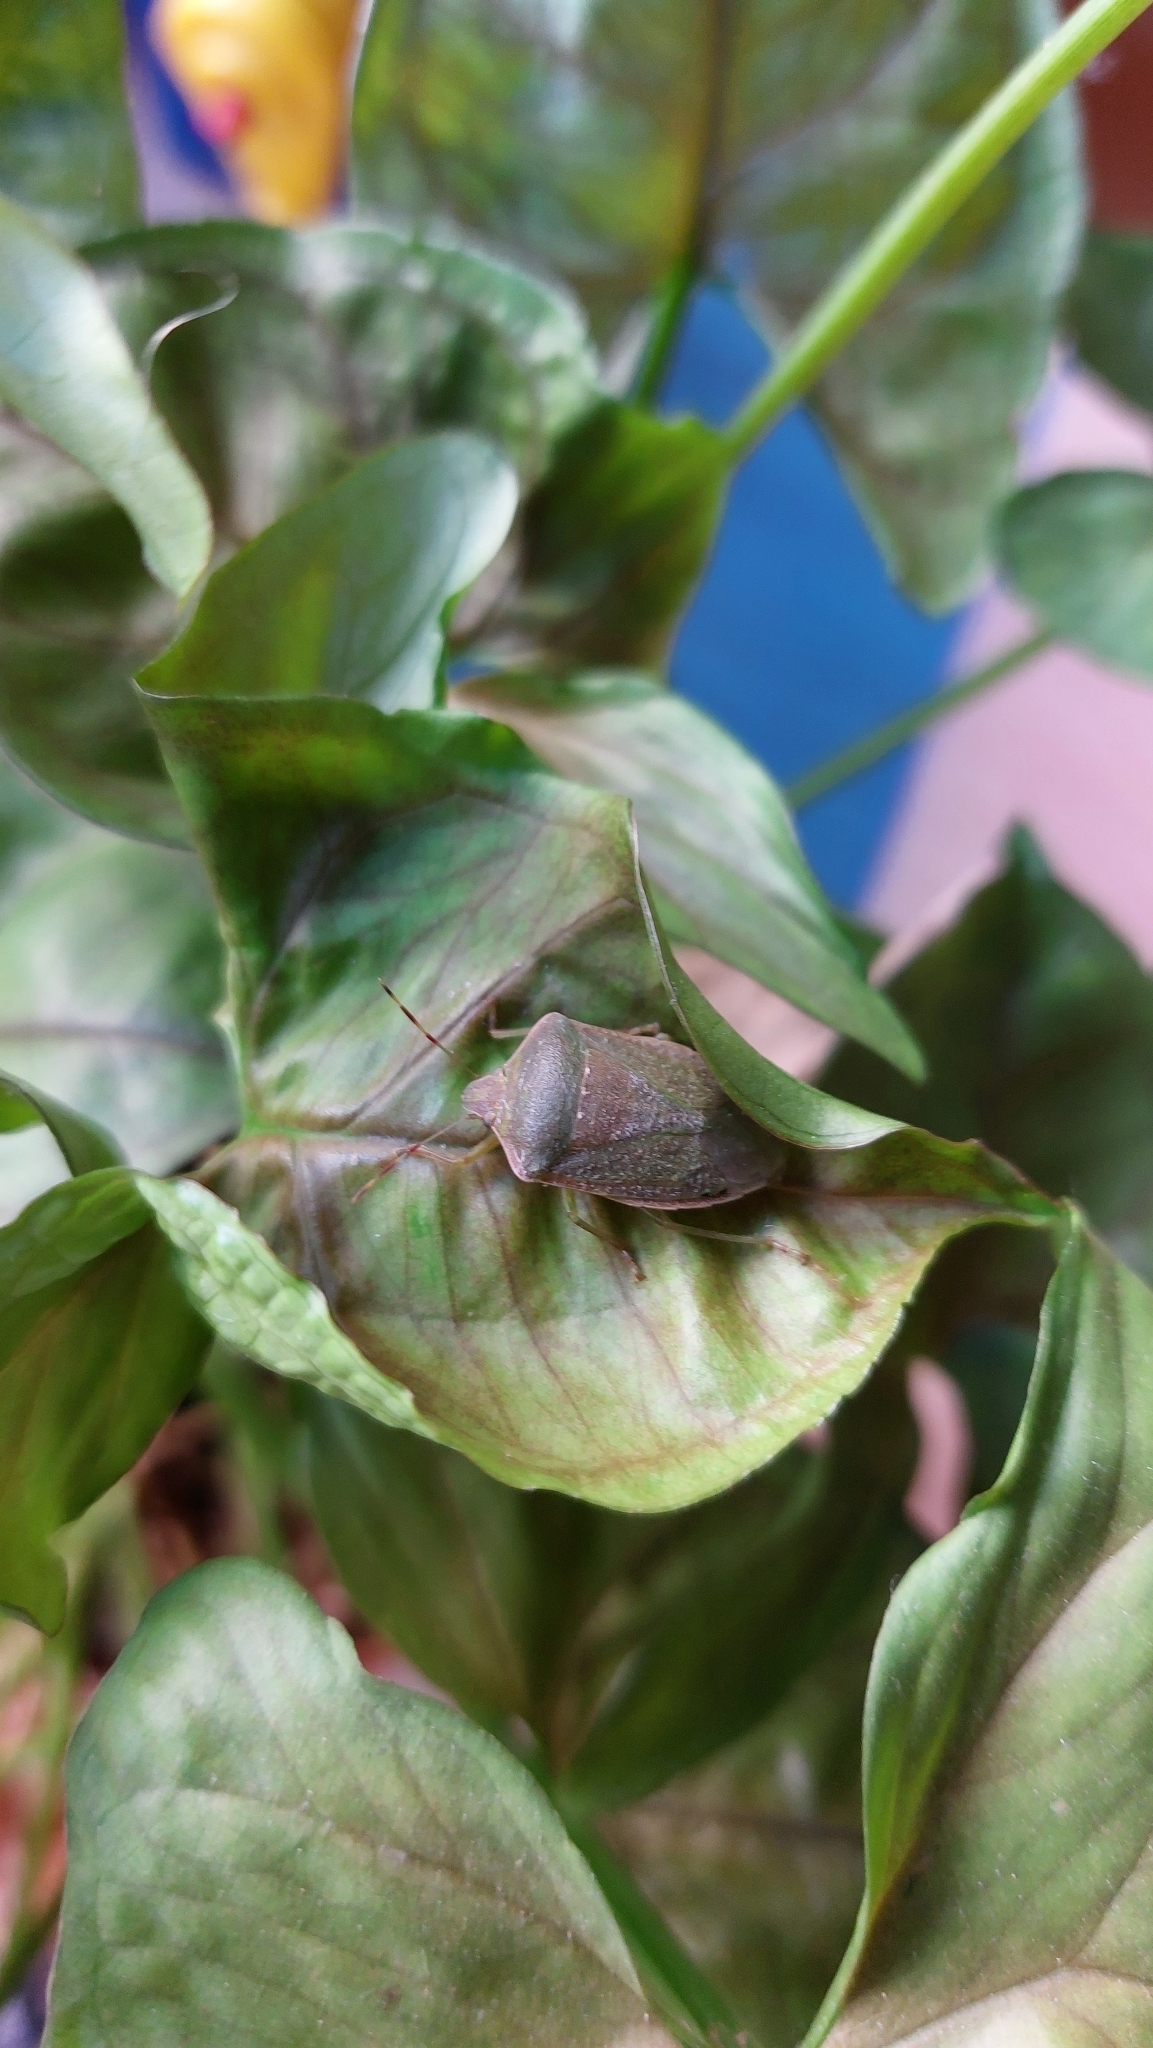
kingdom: Animalia
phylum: Arthropoda
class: Insecta
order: Hemiptera
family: Pentatomidae
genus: Nezara
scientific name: Nezara viridula
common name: Southern green stink bug
